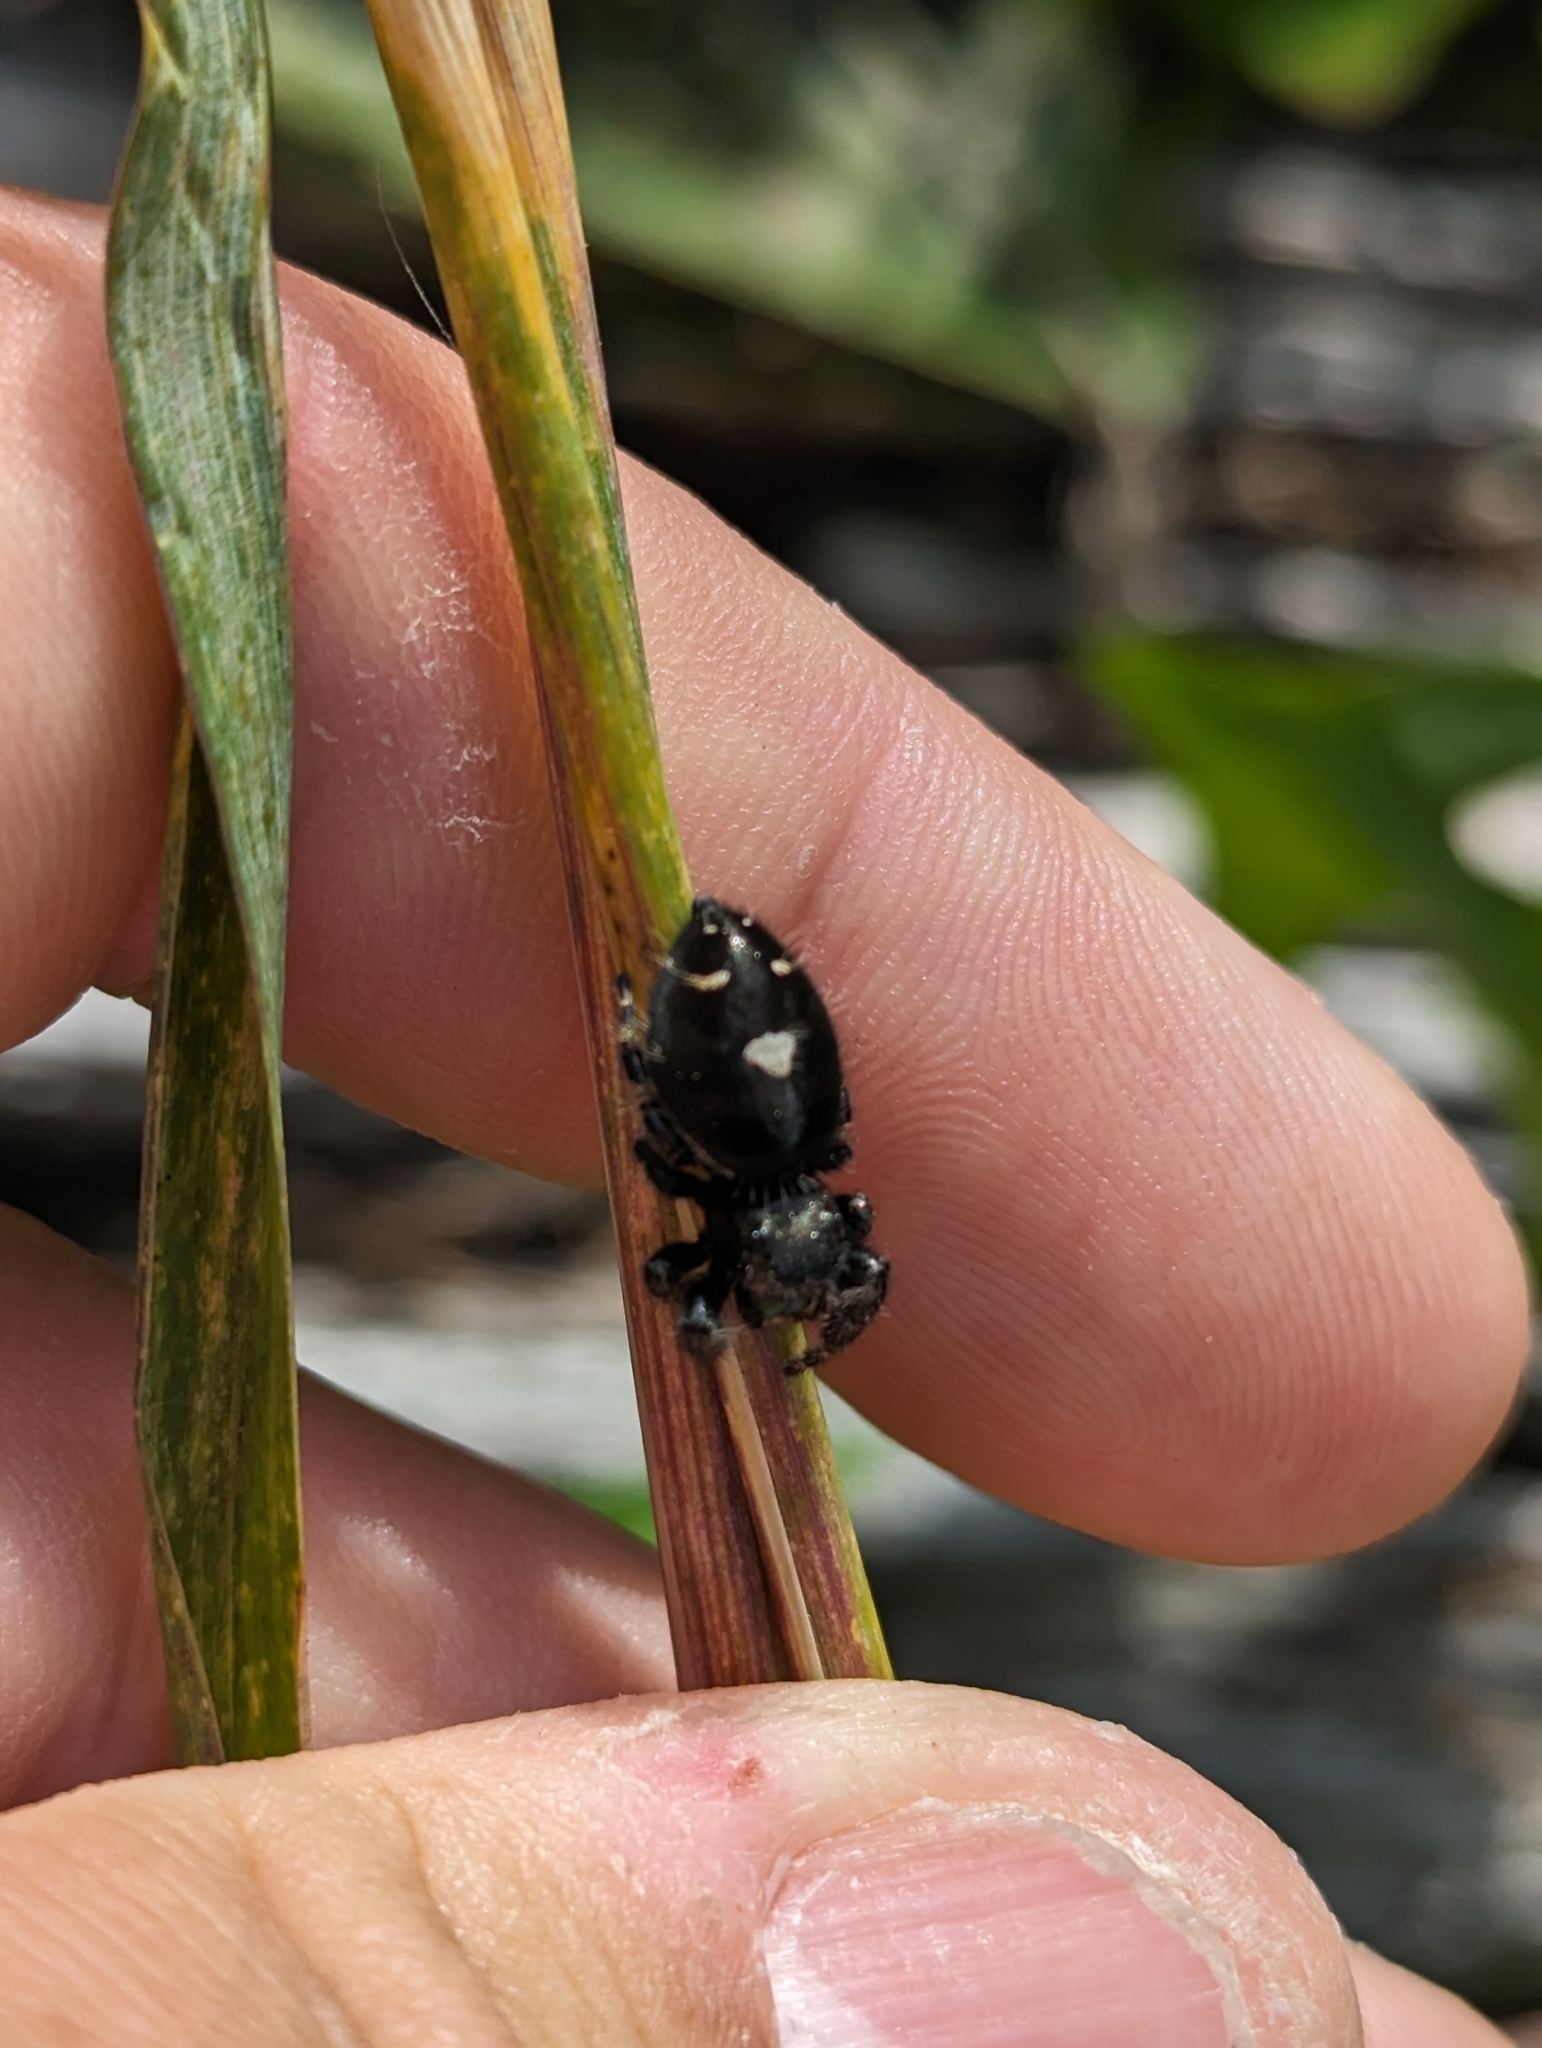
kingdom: Animalia
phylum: Arthropoda
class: Arachnida
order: Araneae
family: Salticidae
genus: Phidippus
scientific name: Phidippus audax
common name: Bold jumper
